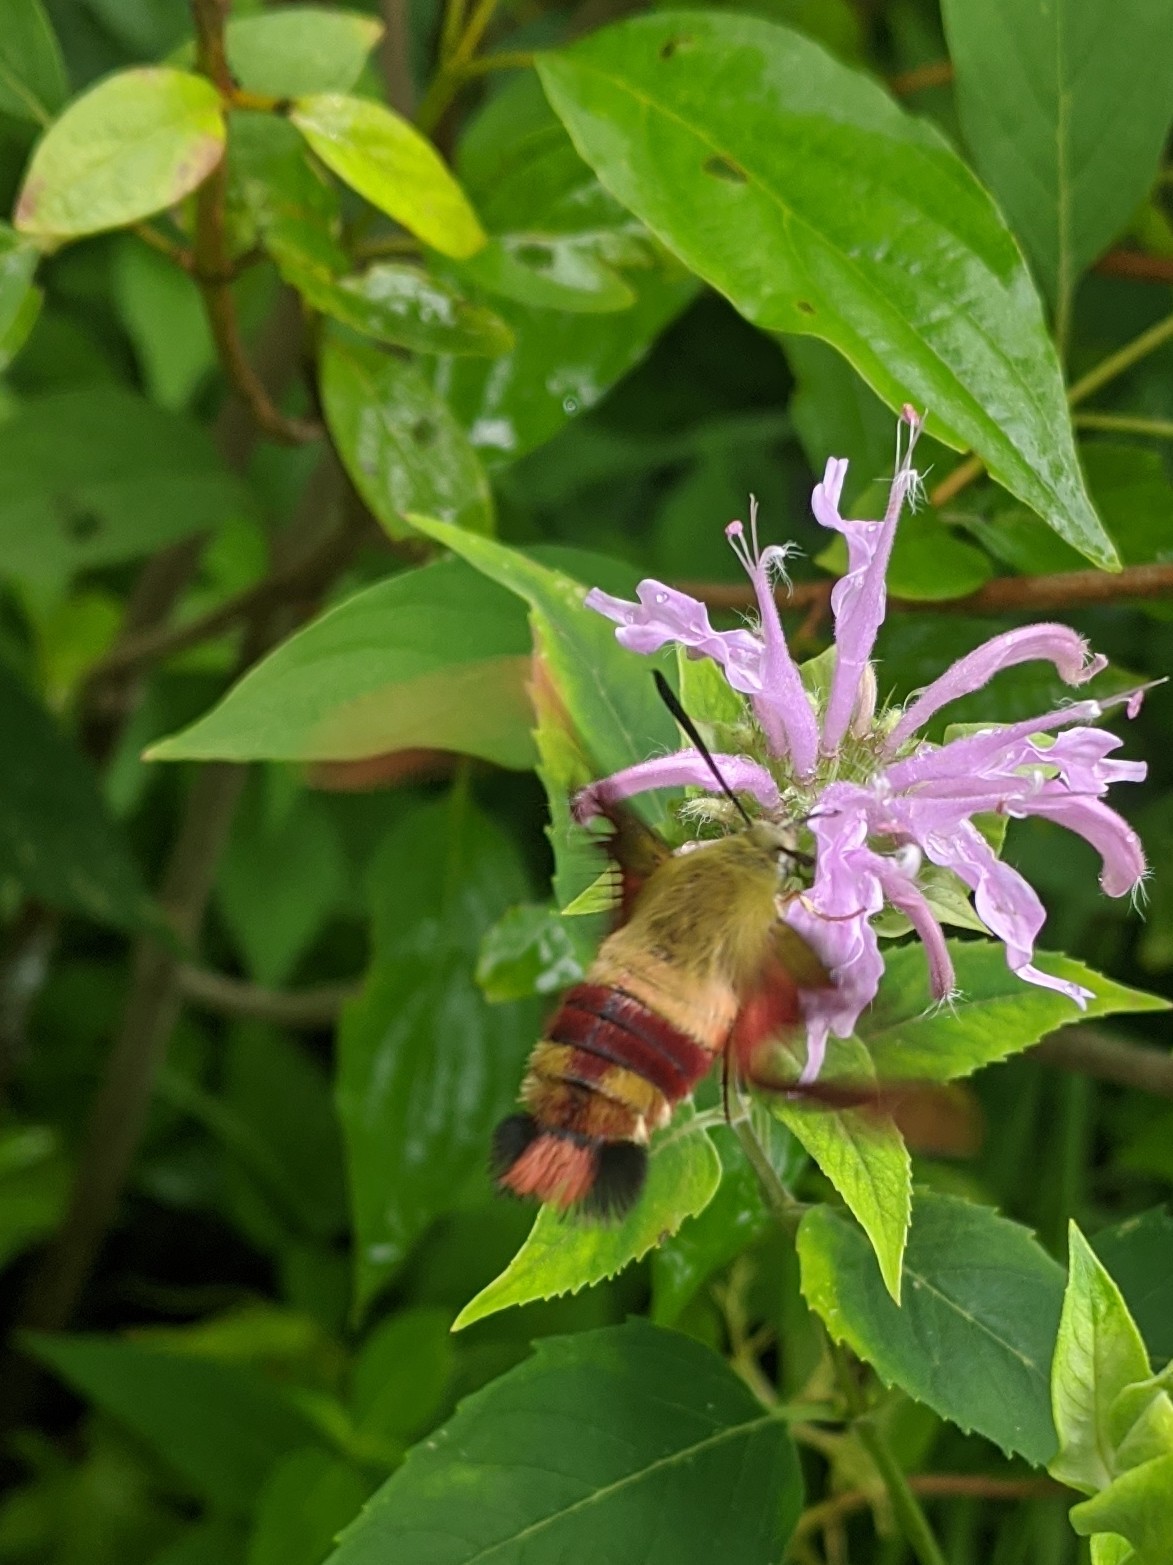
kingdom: Animalia
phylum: Arthropoda
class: Insecta
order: Lepidoptera
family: Sphingidae
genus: Hemaris
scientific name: Hemaris thysbe
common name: Common clear-wing
